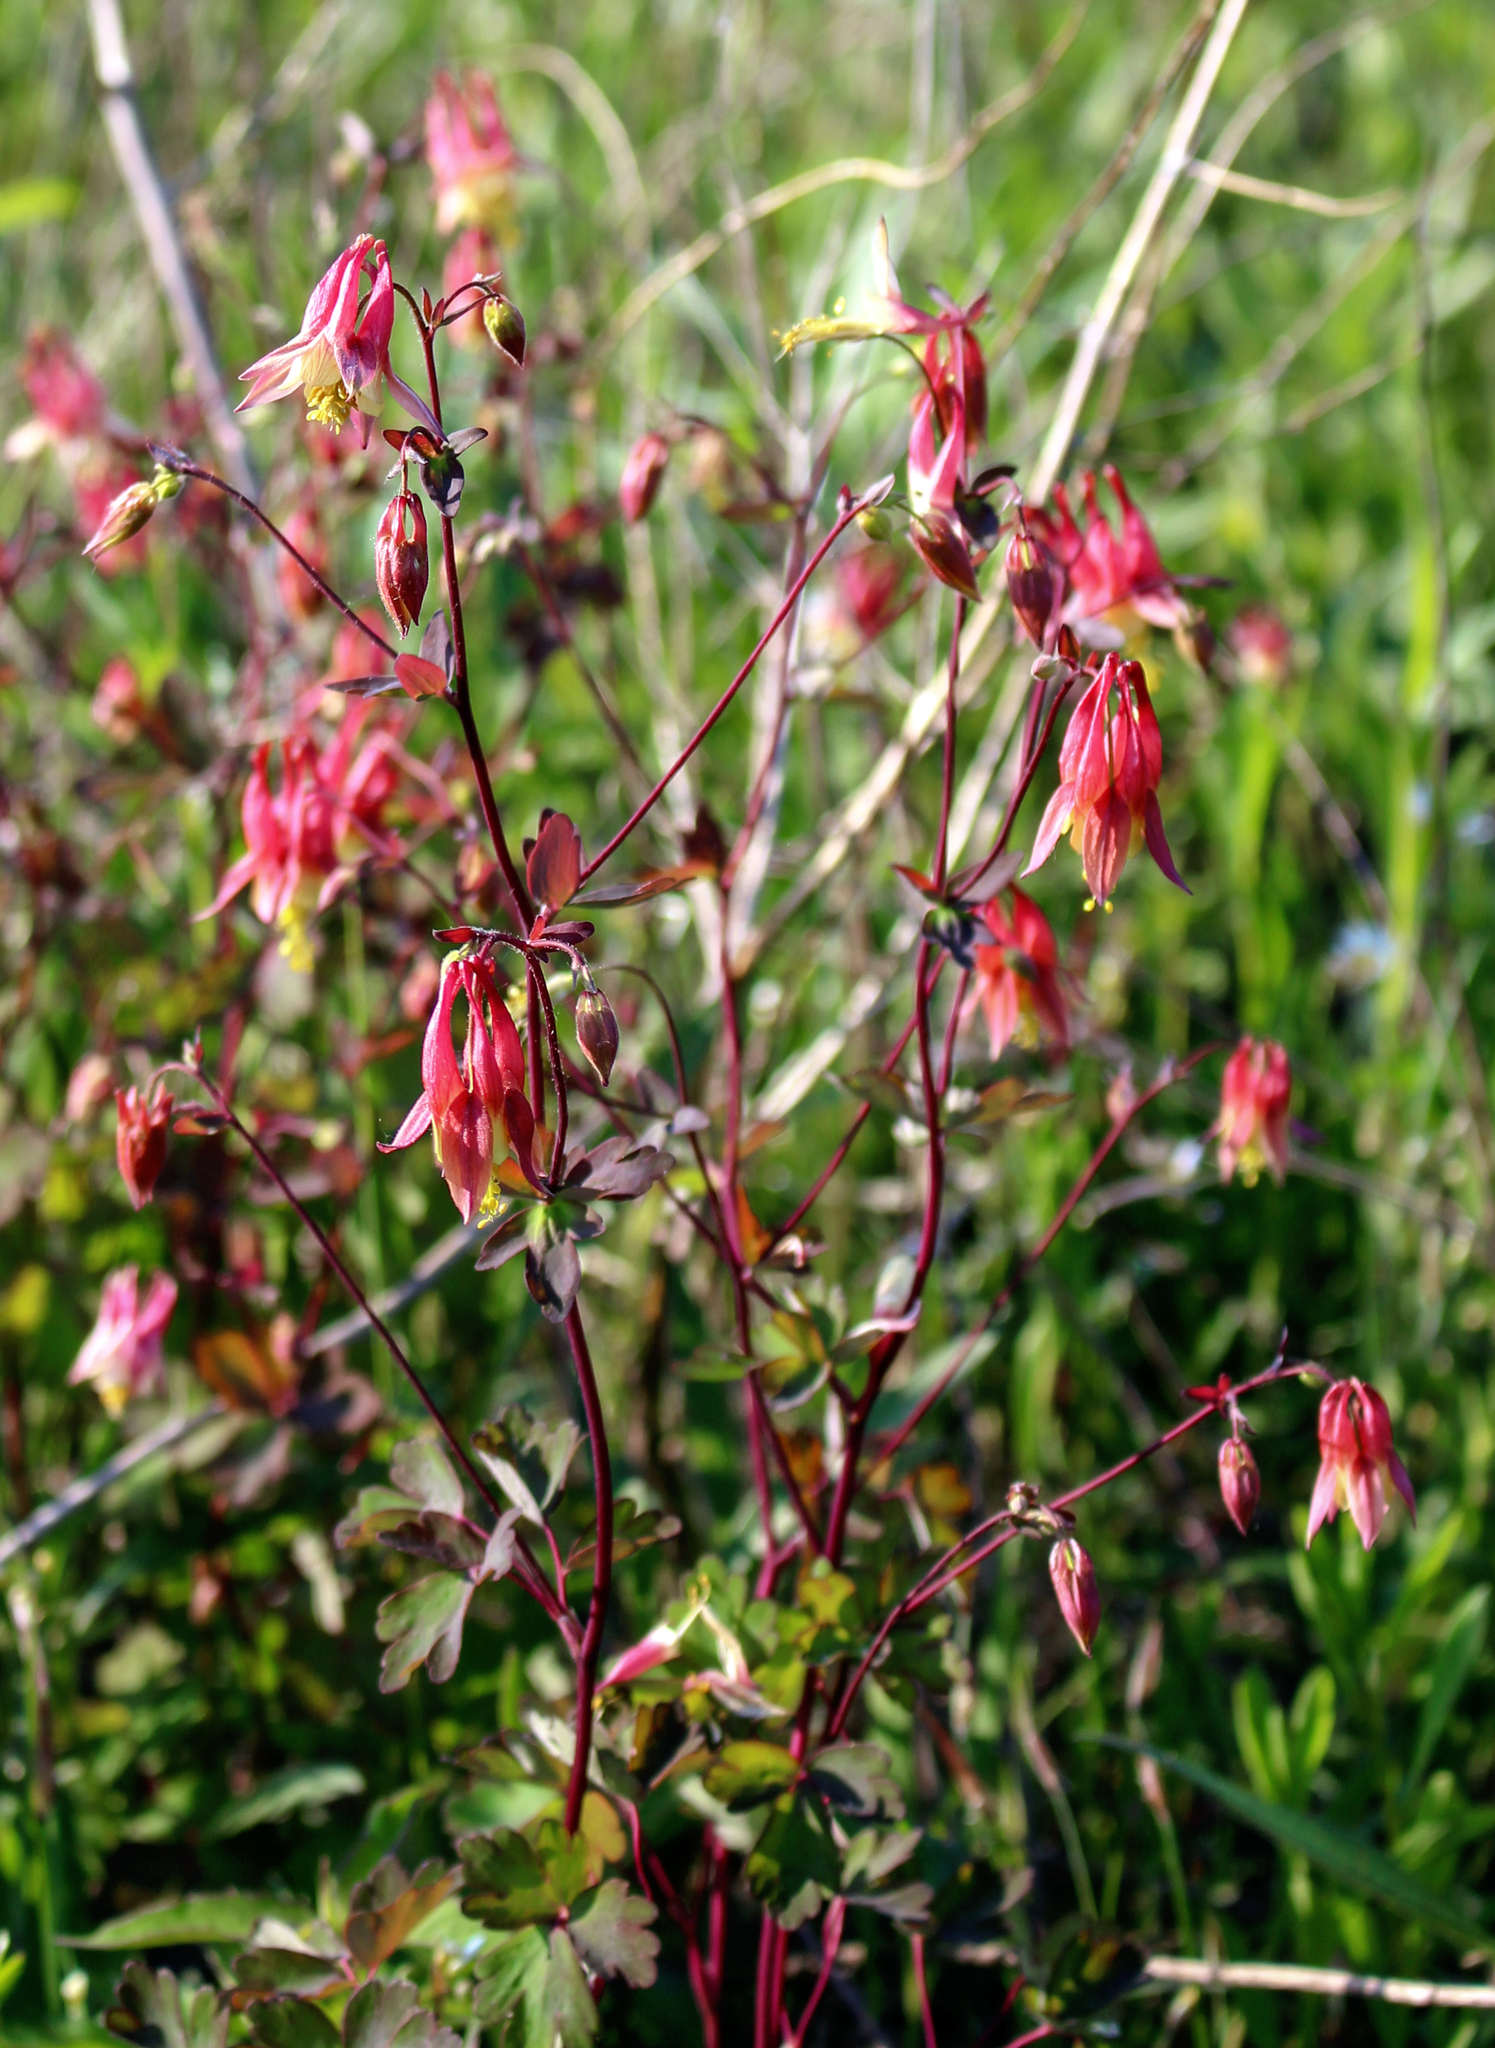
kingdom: Plantae
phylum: Tracheophyta
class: Magnoliopsida
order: Ranunculales
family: Ranunculaceae
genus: Aquilegia
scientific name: Aquilegia canadensis
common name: American columbine
